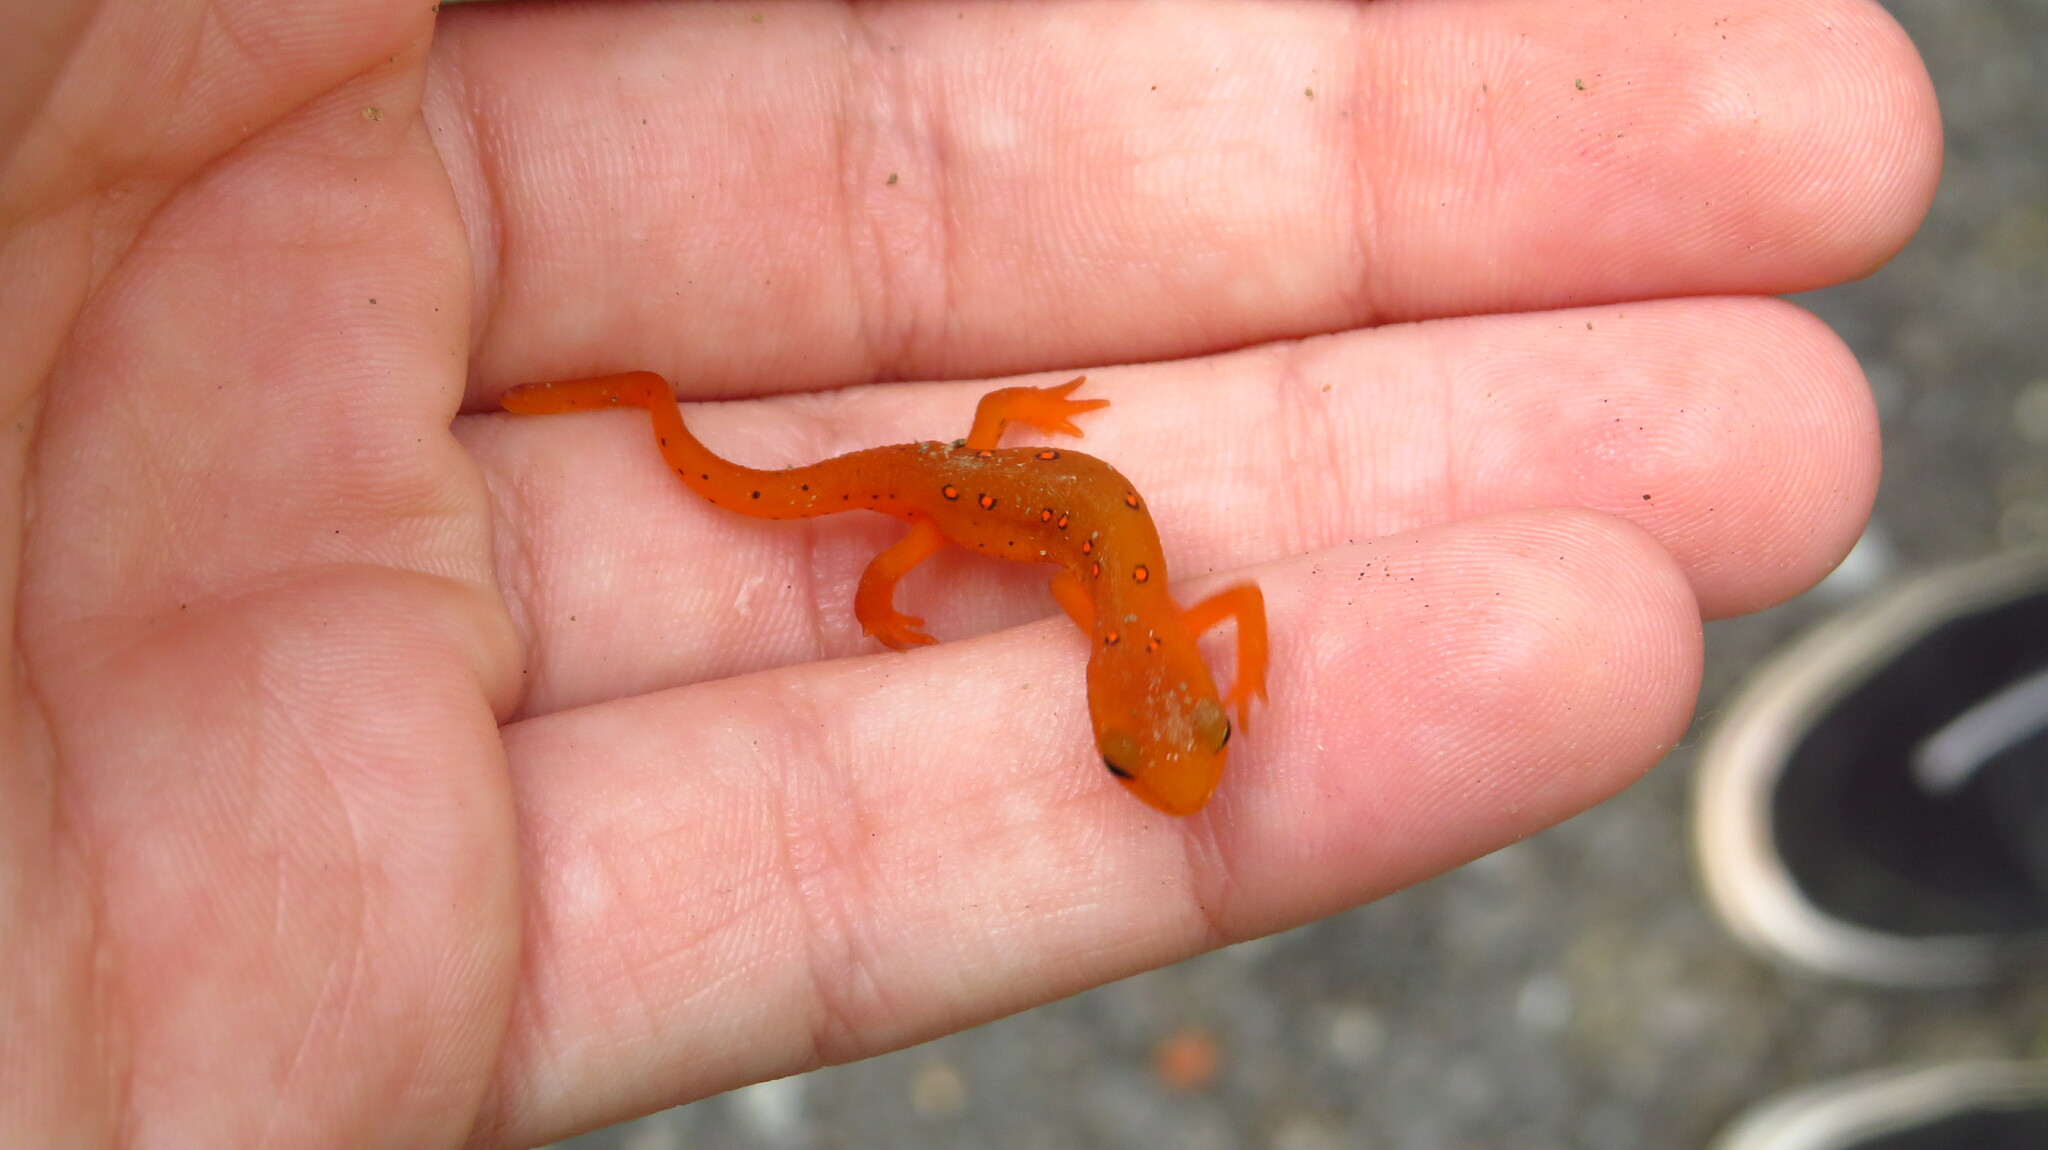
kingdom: Animalia
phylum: Chordata
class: Amphibia
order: Caudata
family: Salamandridae
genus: Notophthalmus
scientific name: Notophthalmus viridescens
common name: Eastern newt
